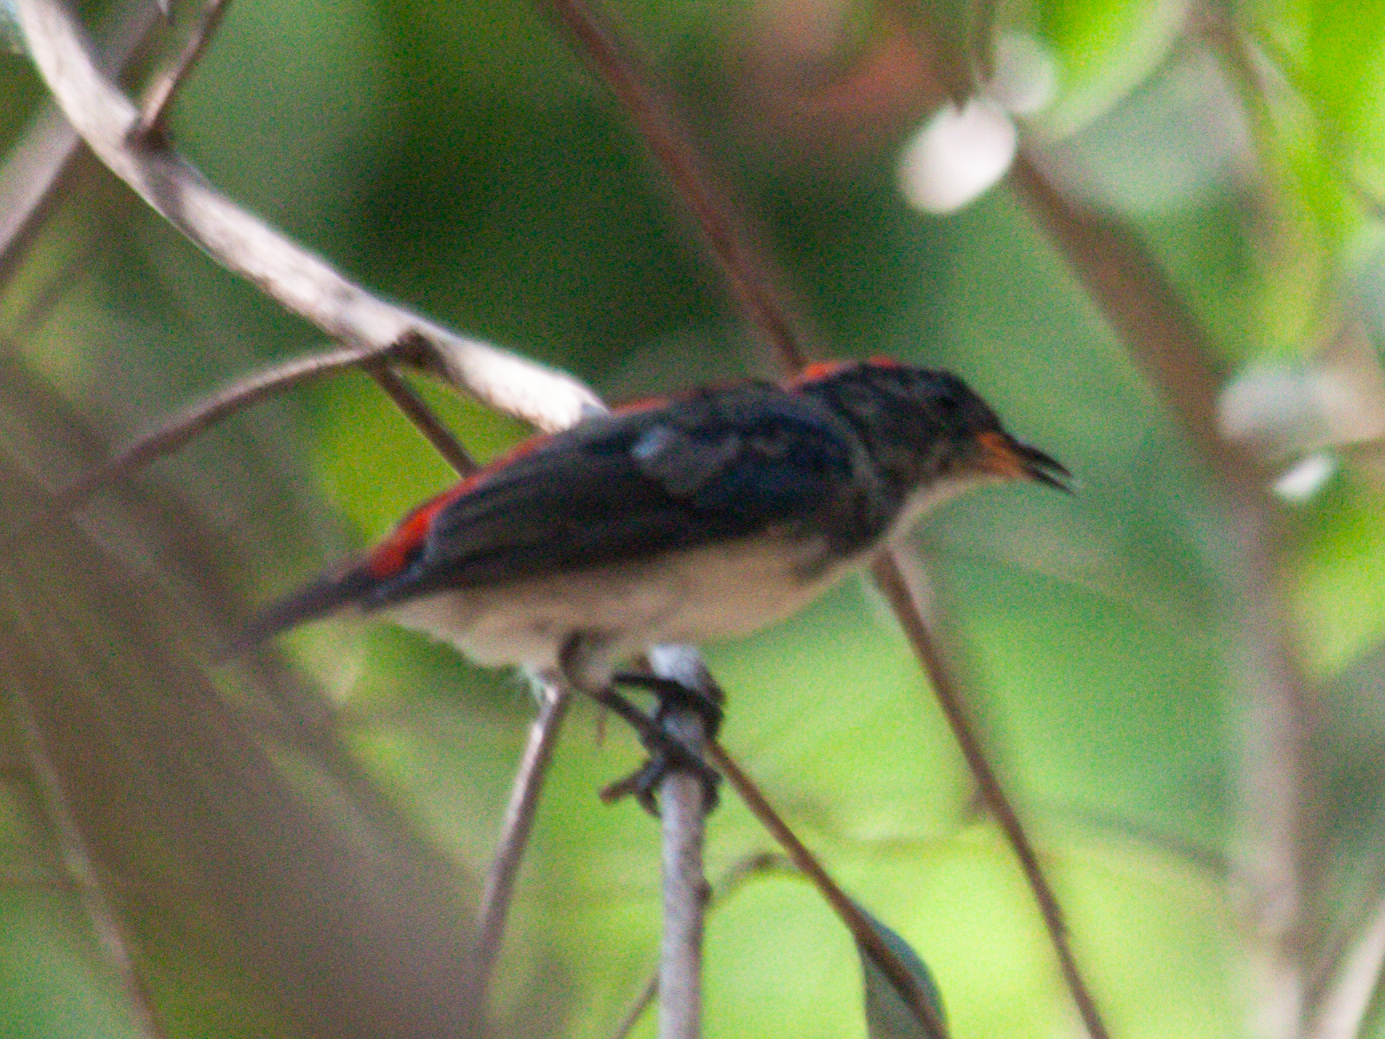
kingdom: Animalia
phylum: Chordata
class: Aves
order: Passeriformes
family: Dicaeidae
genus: Dicaeum
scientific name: Dicaeum cruentatum
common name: Scarlet-backed flowerpecker
